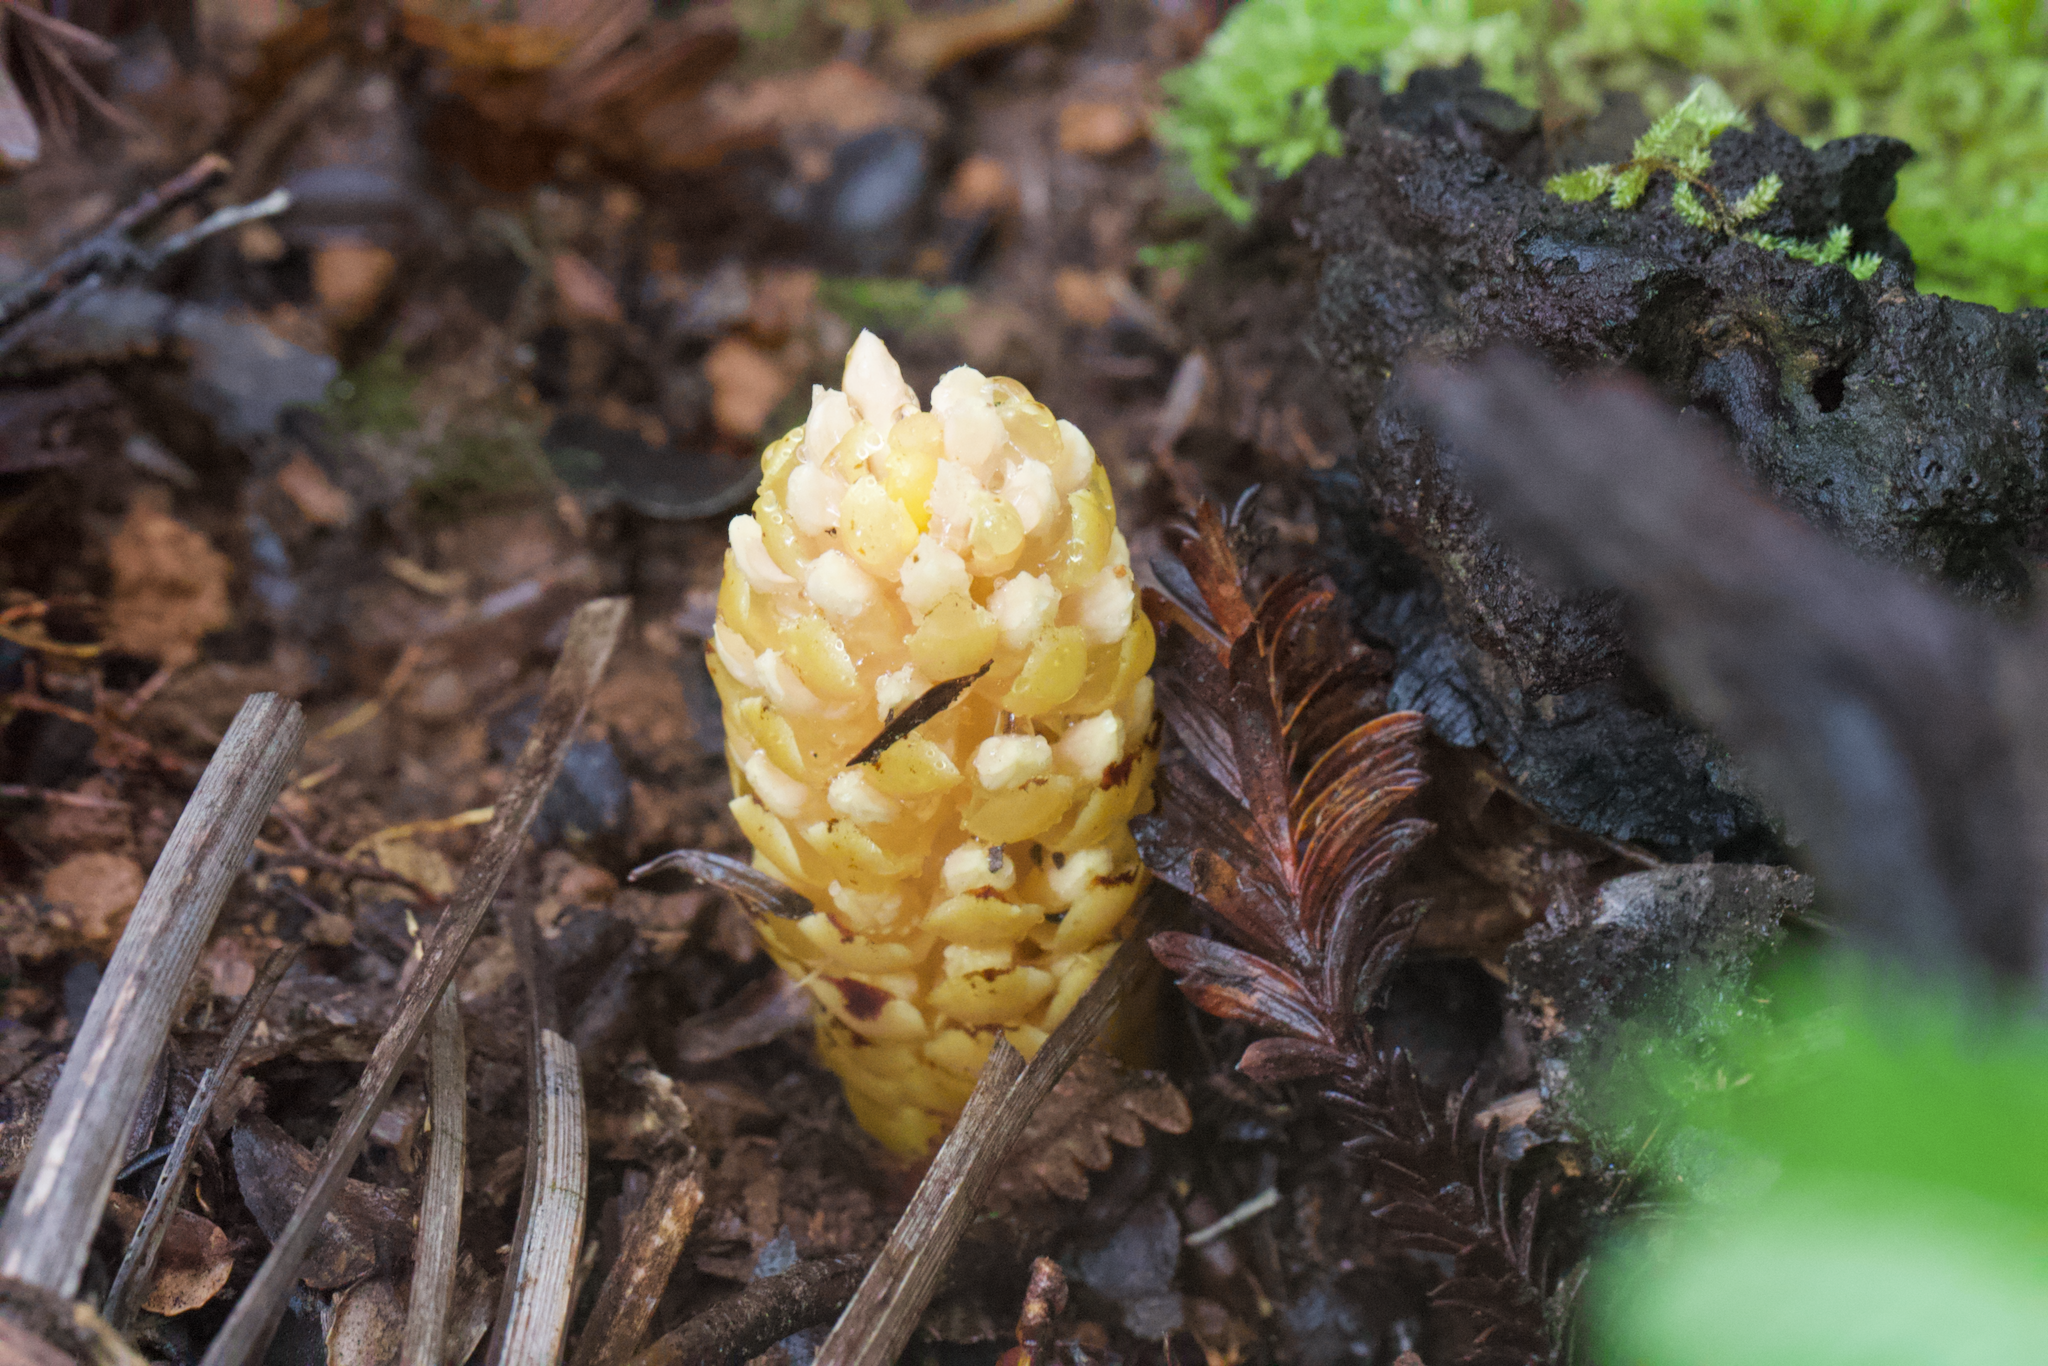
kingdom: Plantae
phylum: Tracheophyta
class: Magnoliopsida
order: Lamiales
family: Orobanchaceae
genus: Kopsiopsis
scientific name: Kopsiopsis hookeri
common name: Hooker's groundcone
